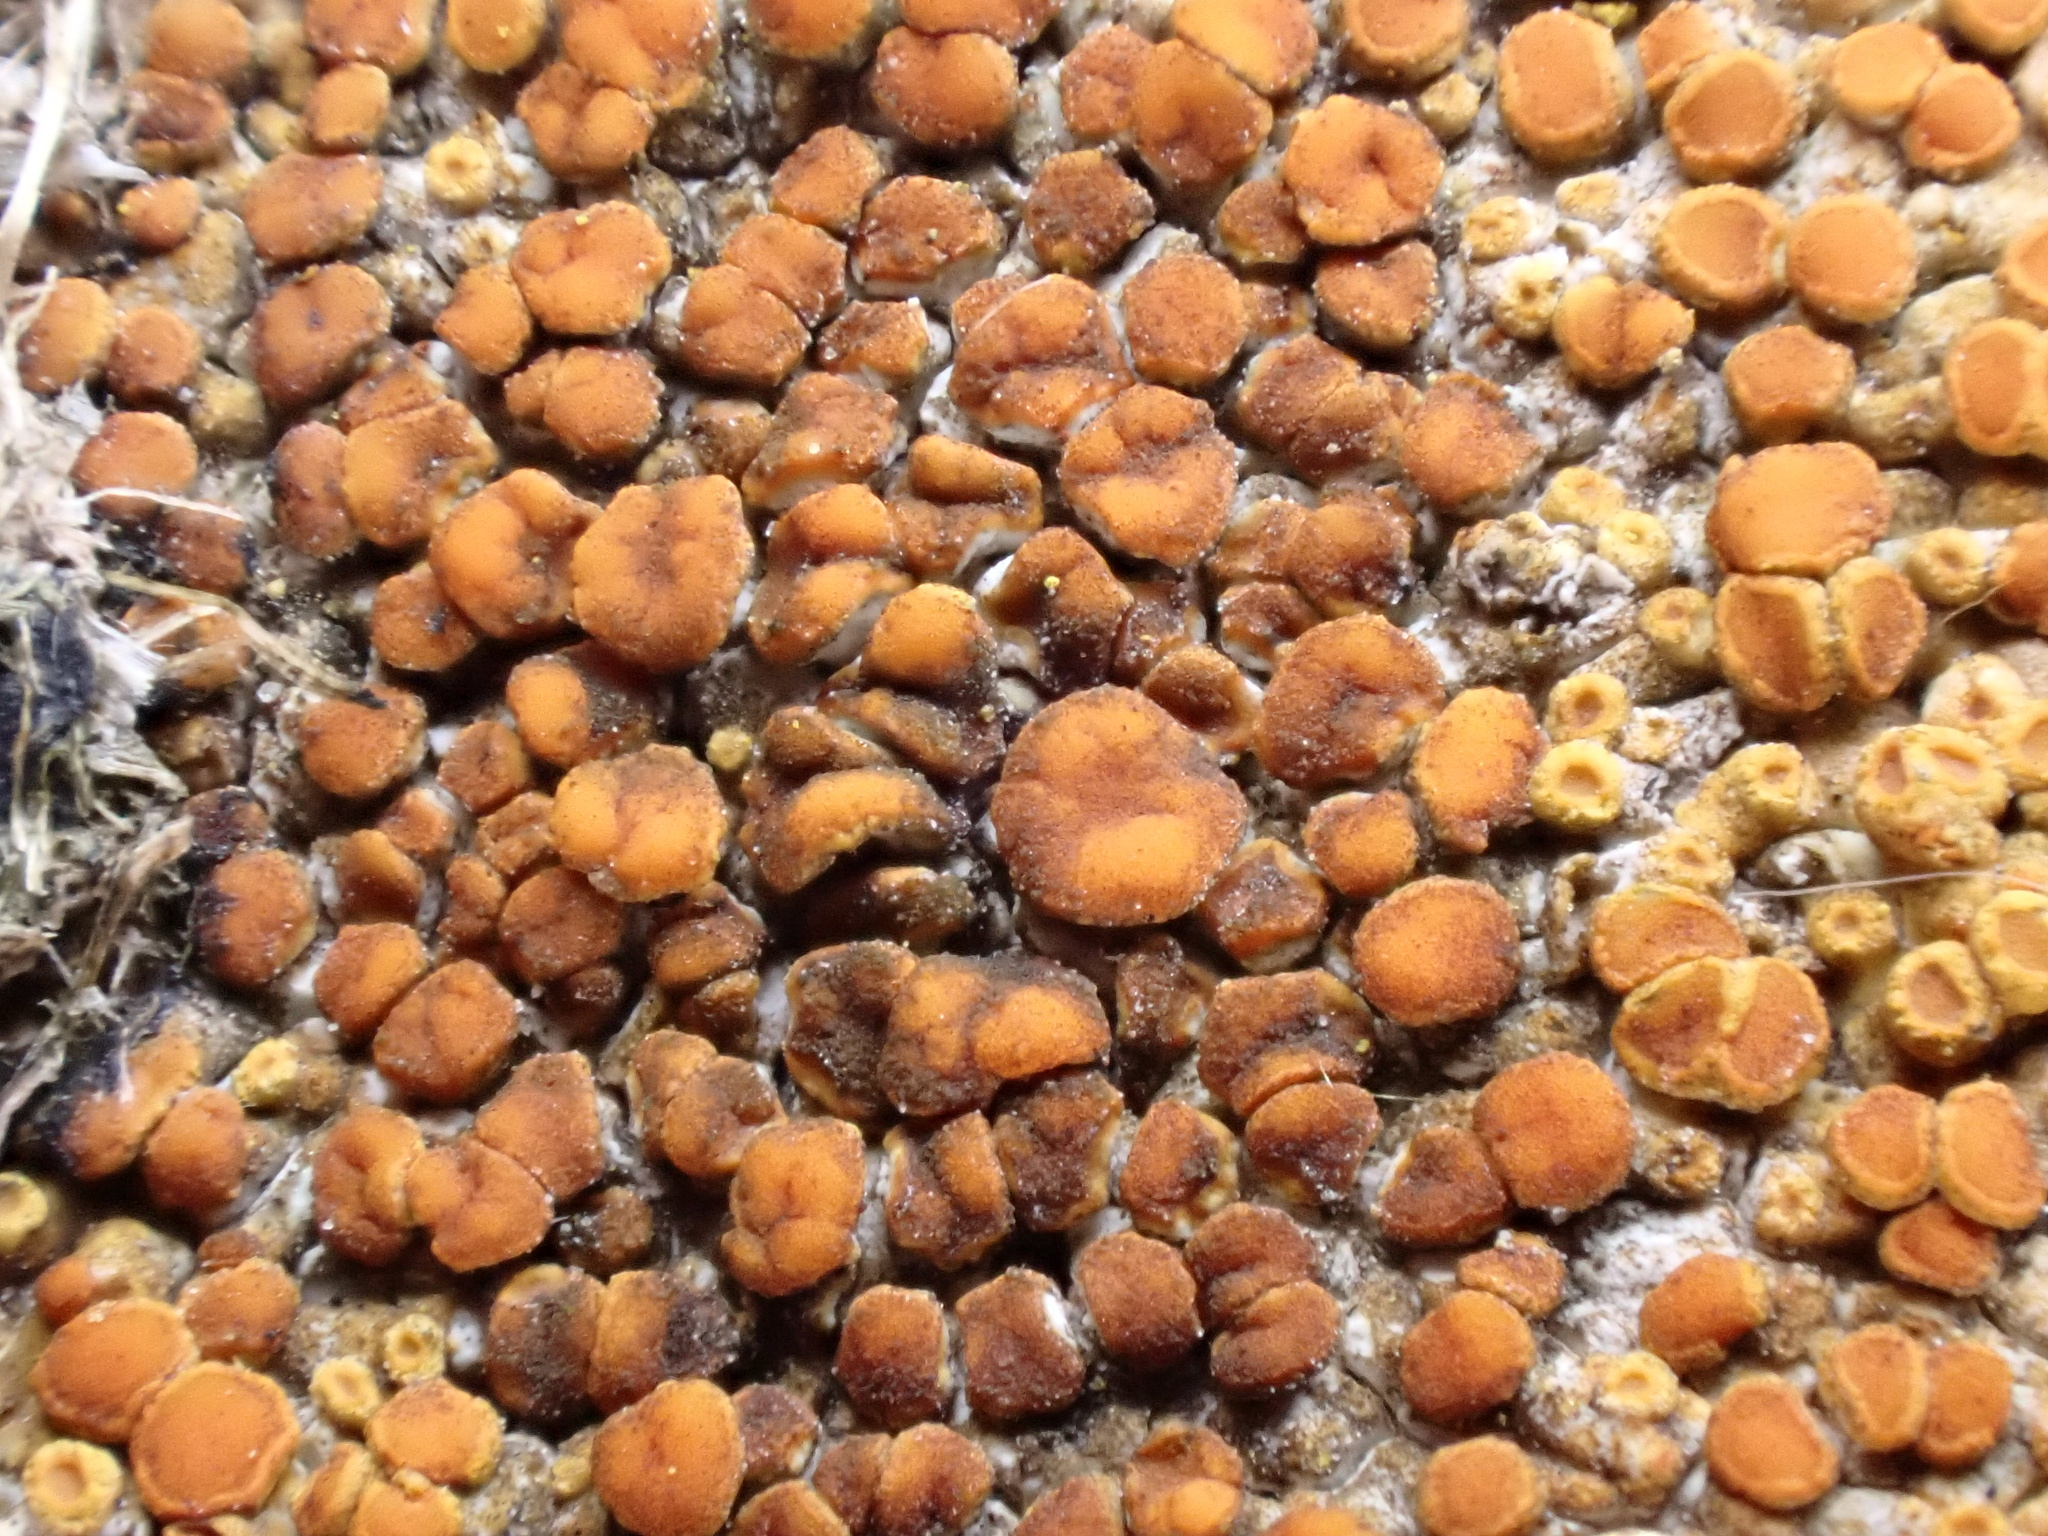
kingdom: Fungi
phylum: Ascomycota
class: Lecanoromycetes
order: Teloschistales
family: Teloschistaceae
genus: Calogaya
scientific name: Calogaya pusilla
